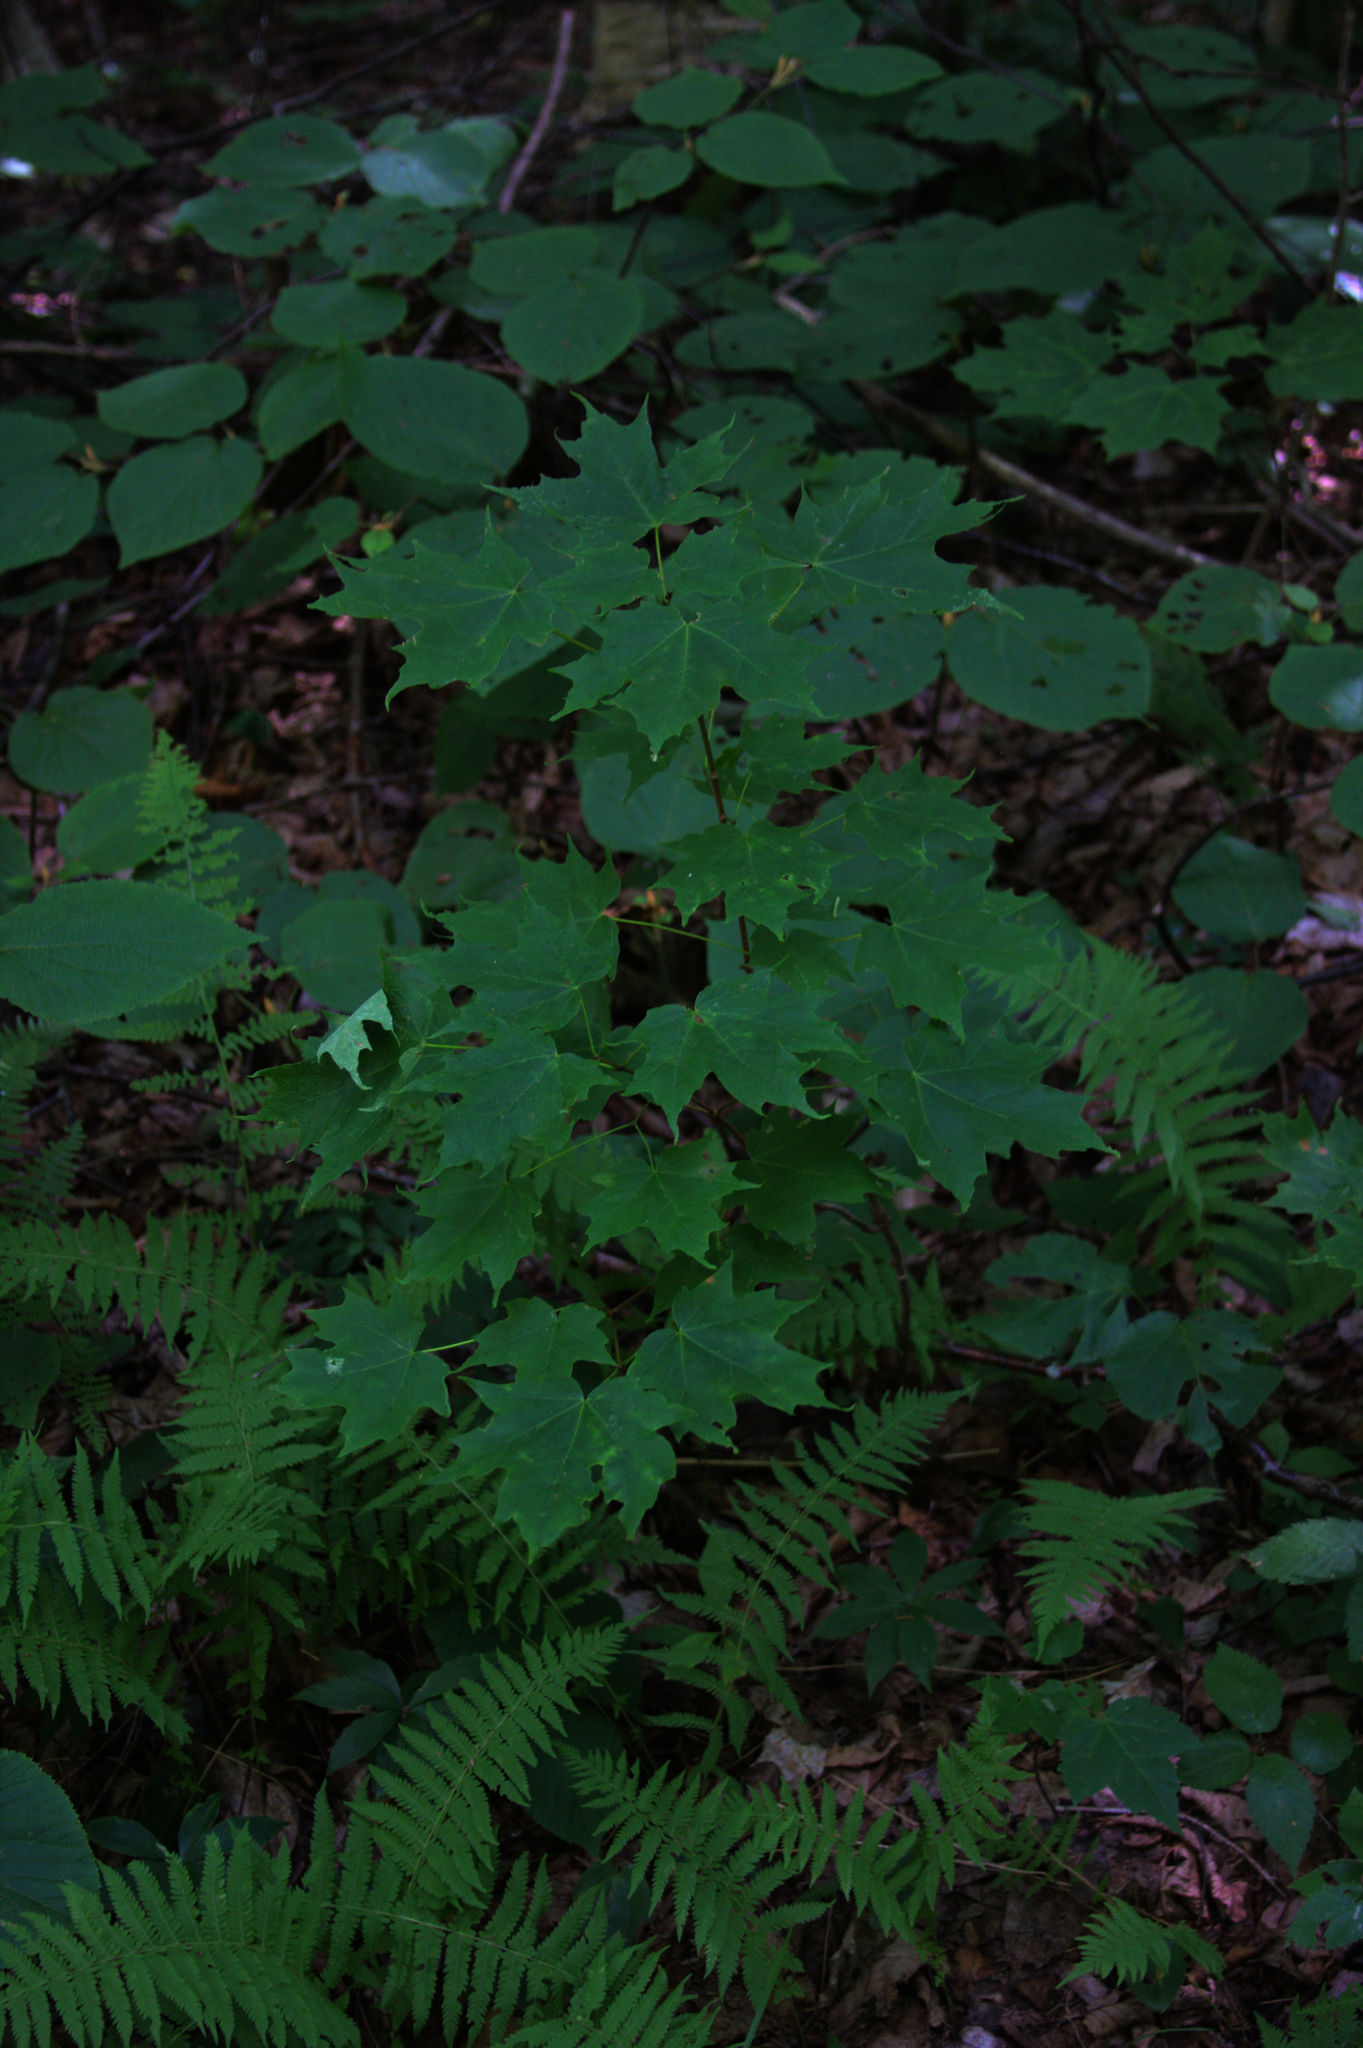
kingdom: Plantae
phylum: Tracheophyta
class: Magnoliopsida
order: Sapindales
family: Sapindaceae
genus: Acer
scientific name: Acer saccharum
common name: Sugar maple
